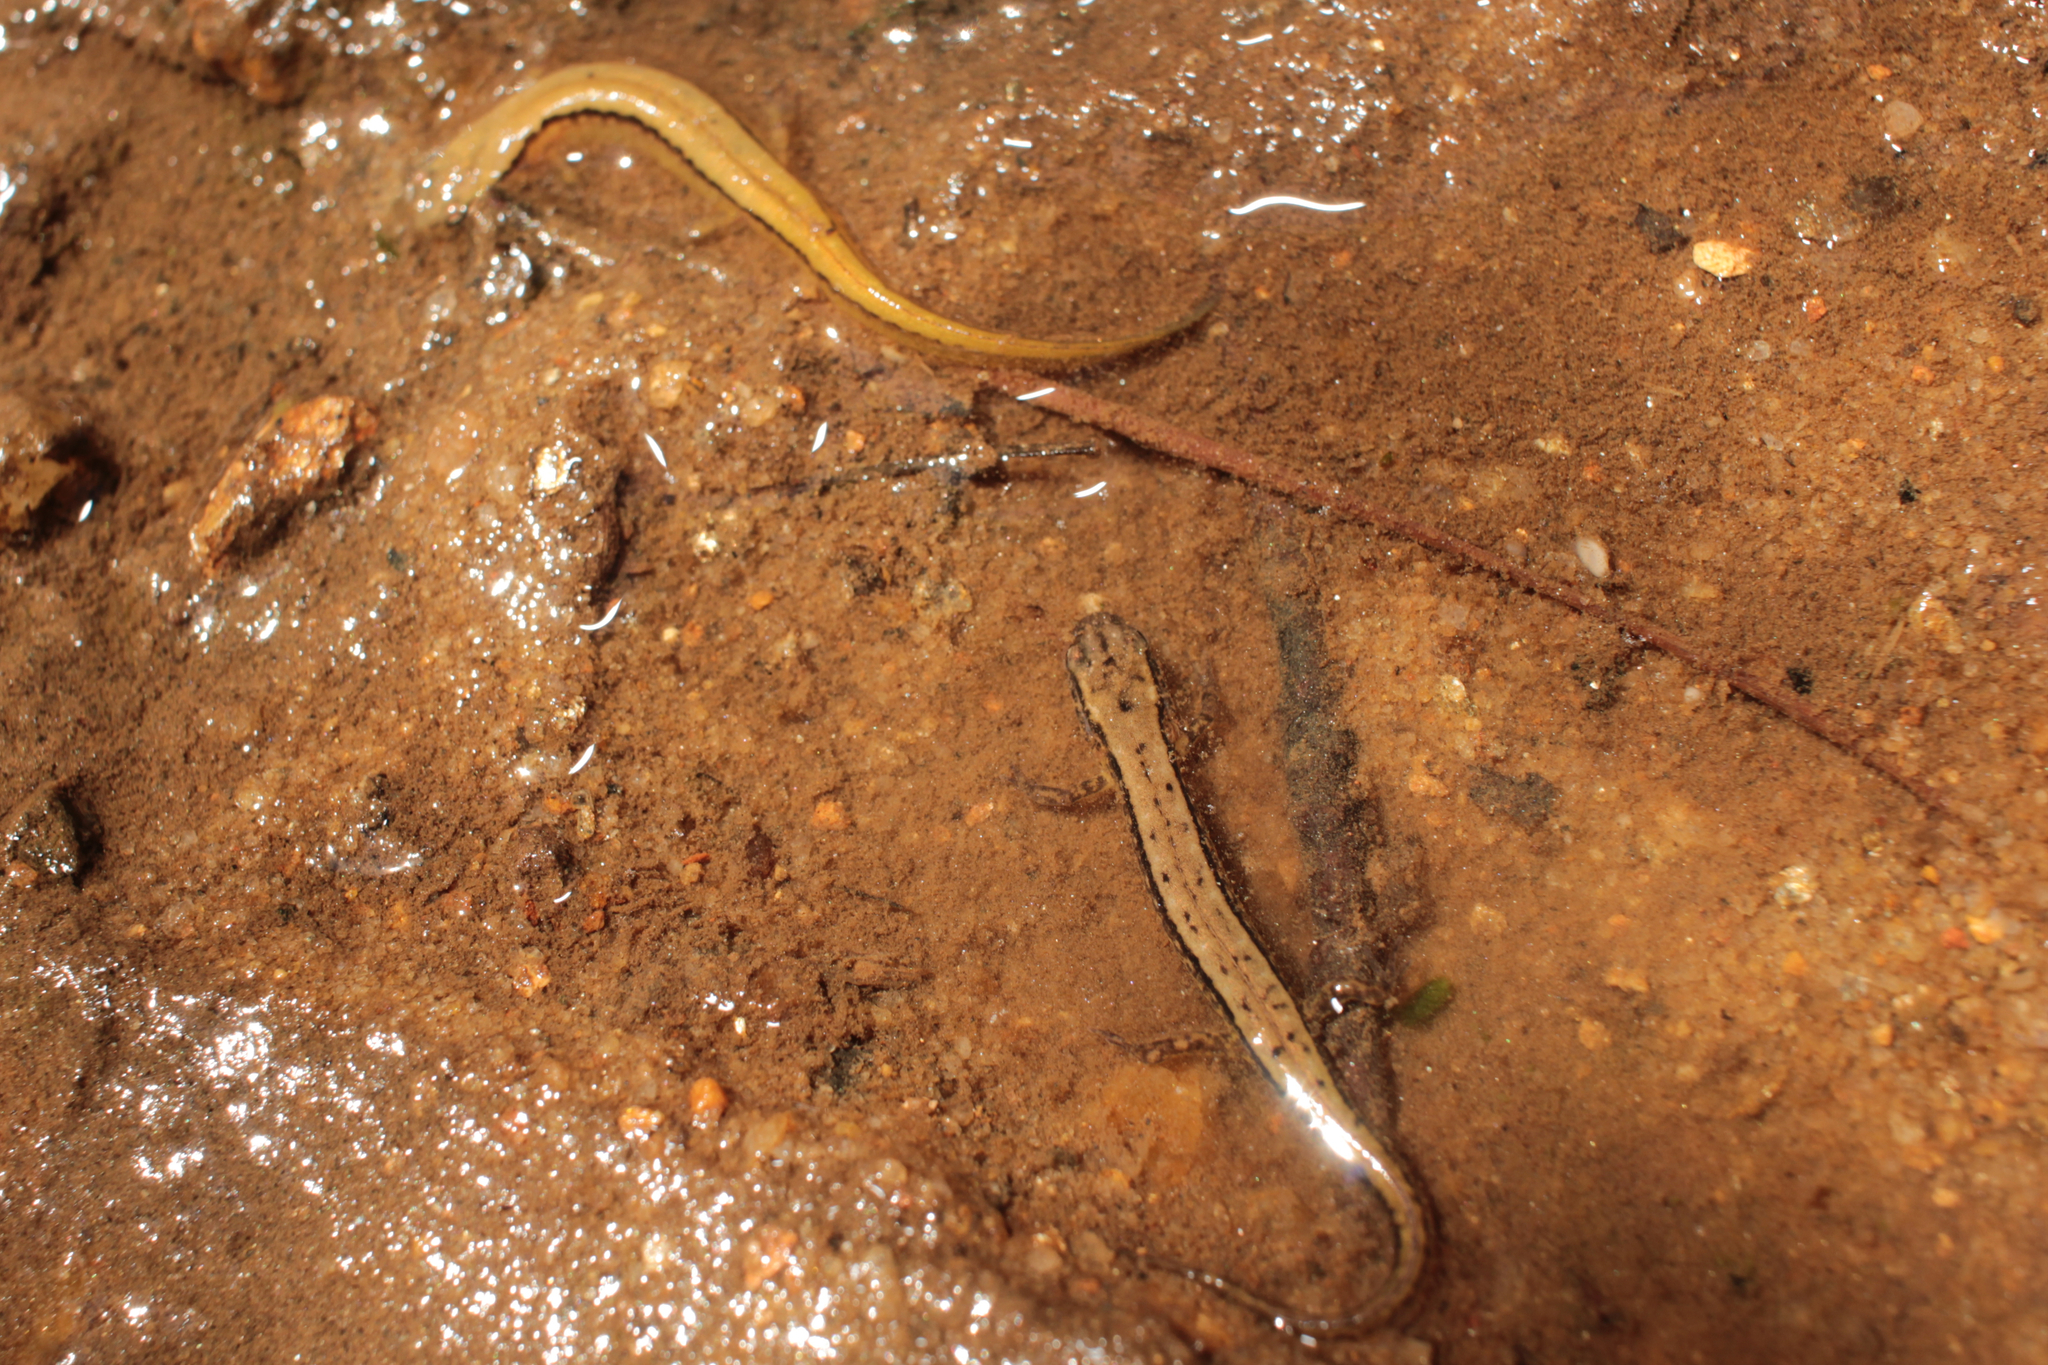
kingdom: Animalia
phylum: Chordata
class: Amphibia
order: Caudata
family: Plethodontidae
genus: Eurycea
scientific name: Eurycea cirrigera
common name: Southern two-lined salamander
